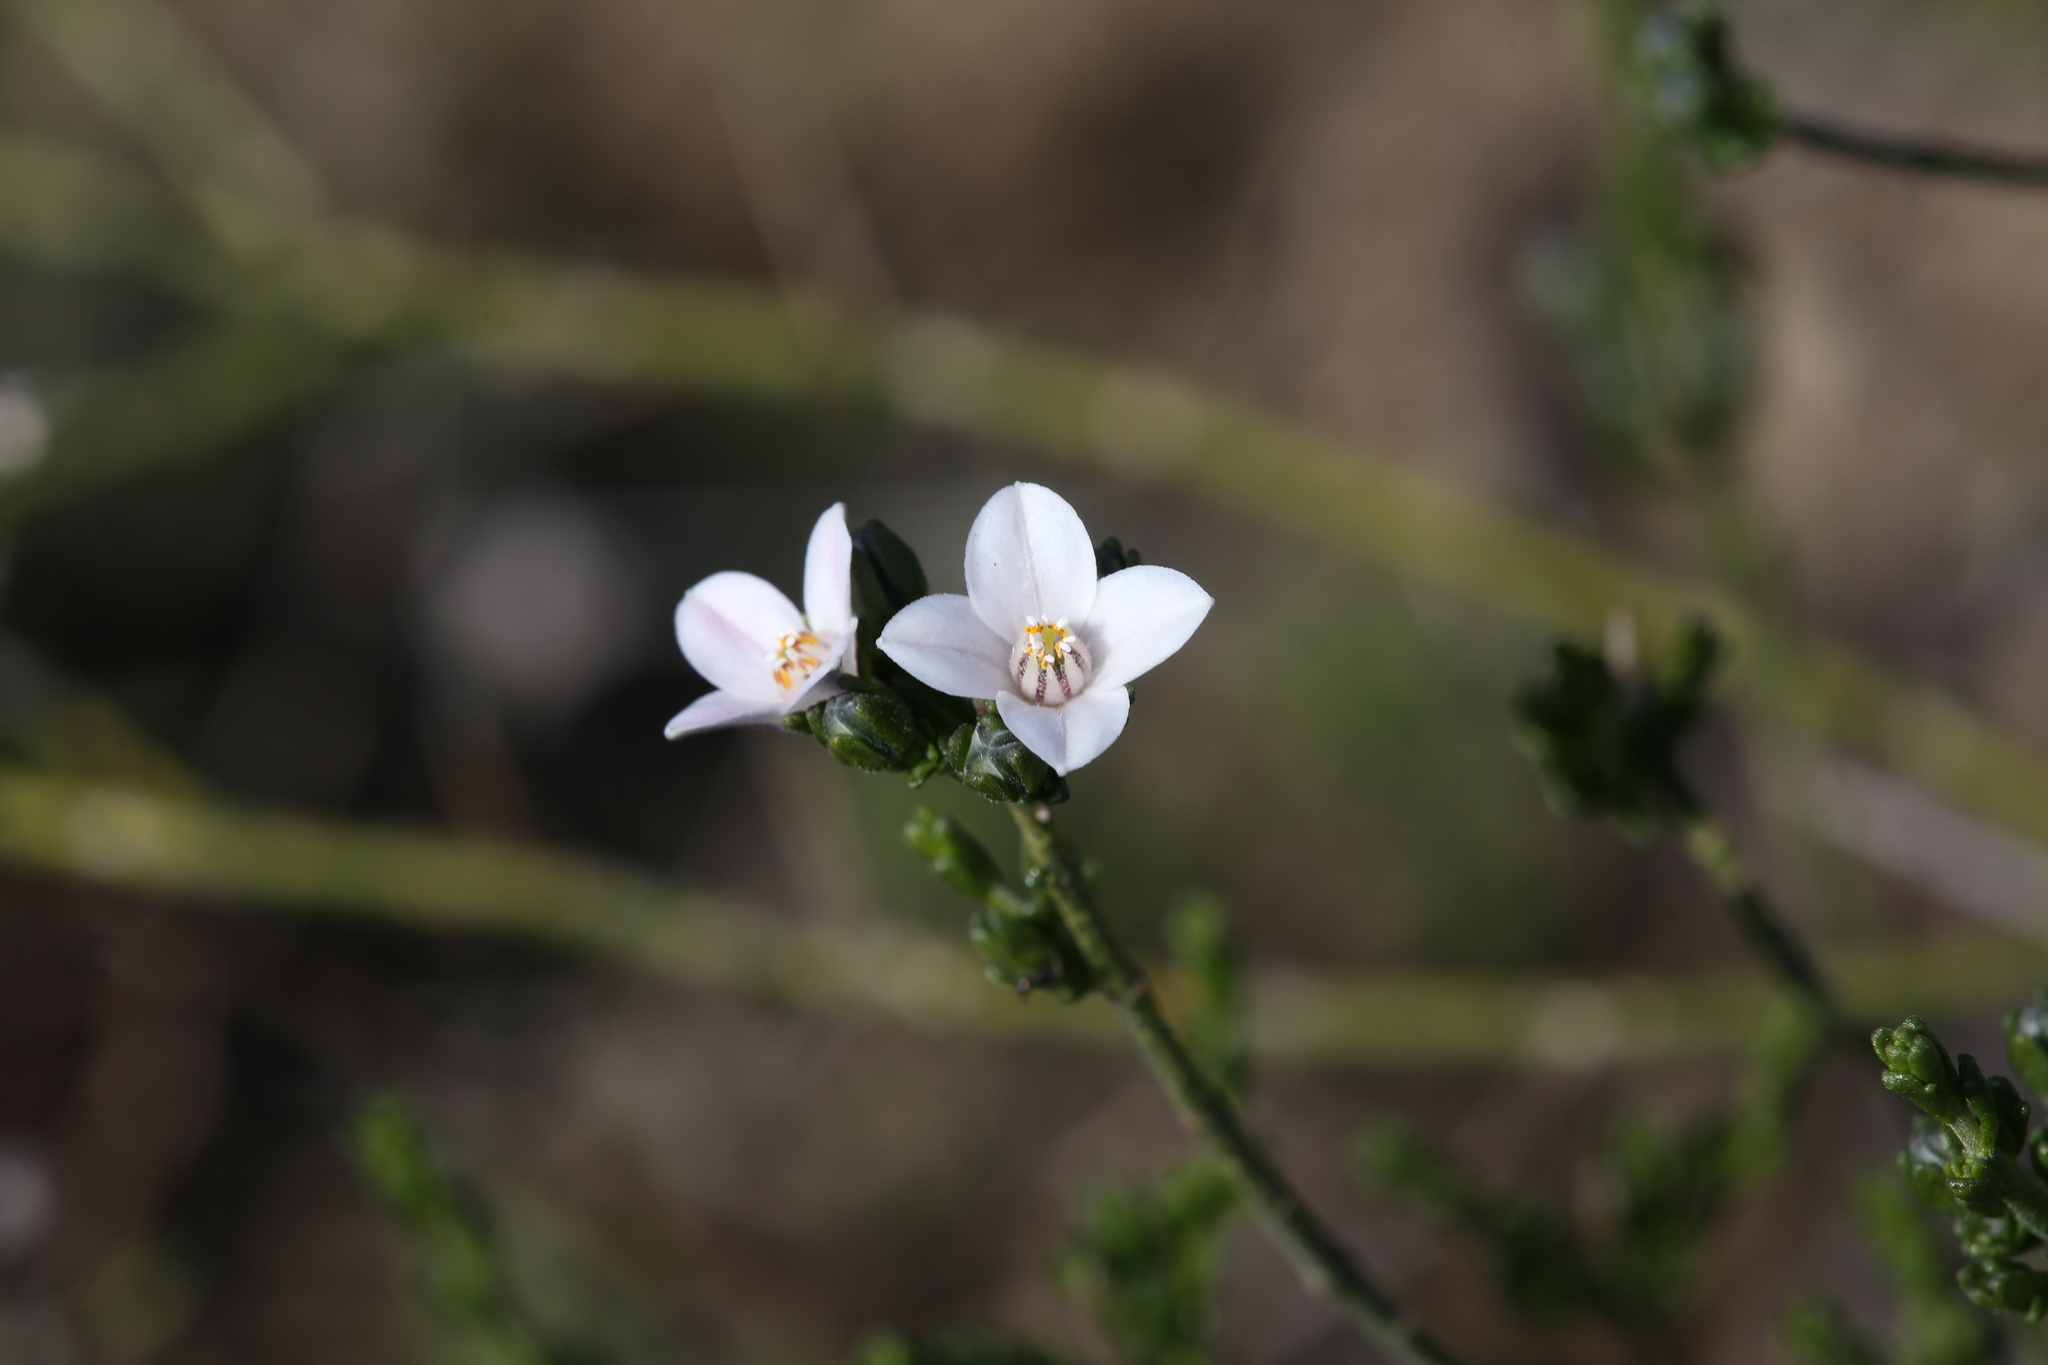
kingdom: Plantae
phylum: Tracheophyta
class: Magnoliopsida
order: Sapindales
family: Rutaceae
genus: Cyanothamnus
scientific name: Cyanothamnus coerulescens
